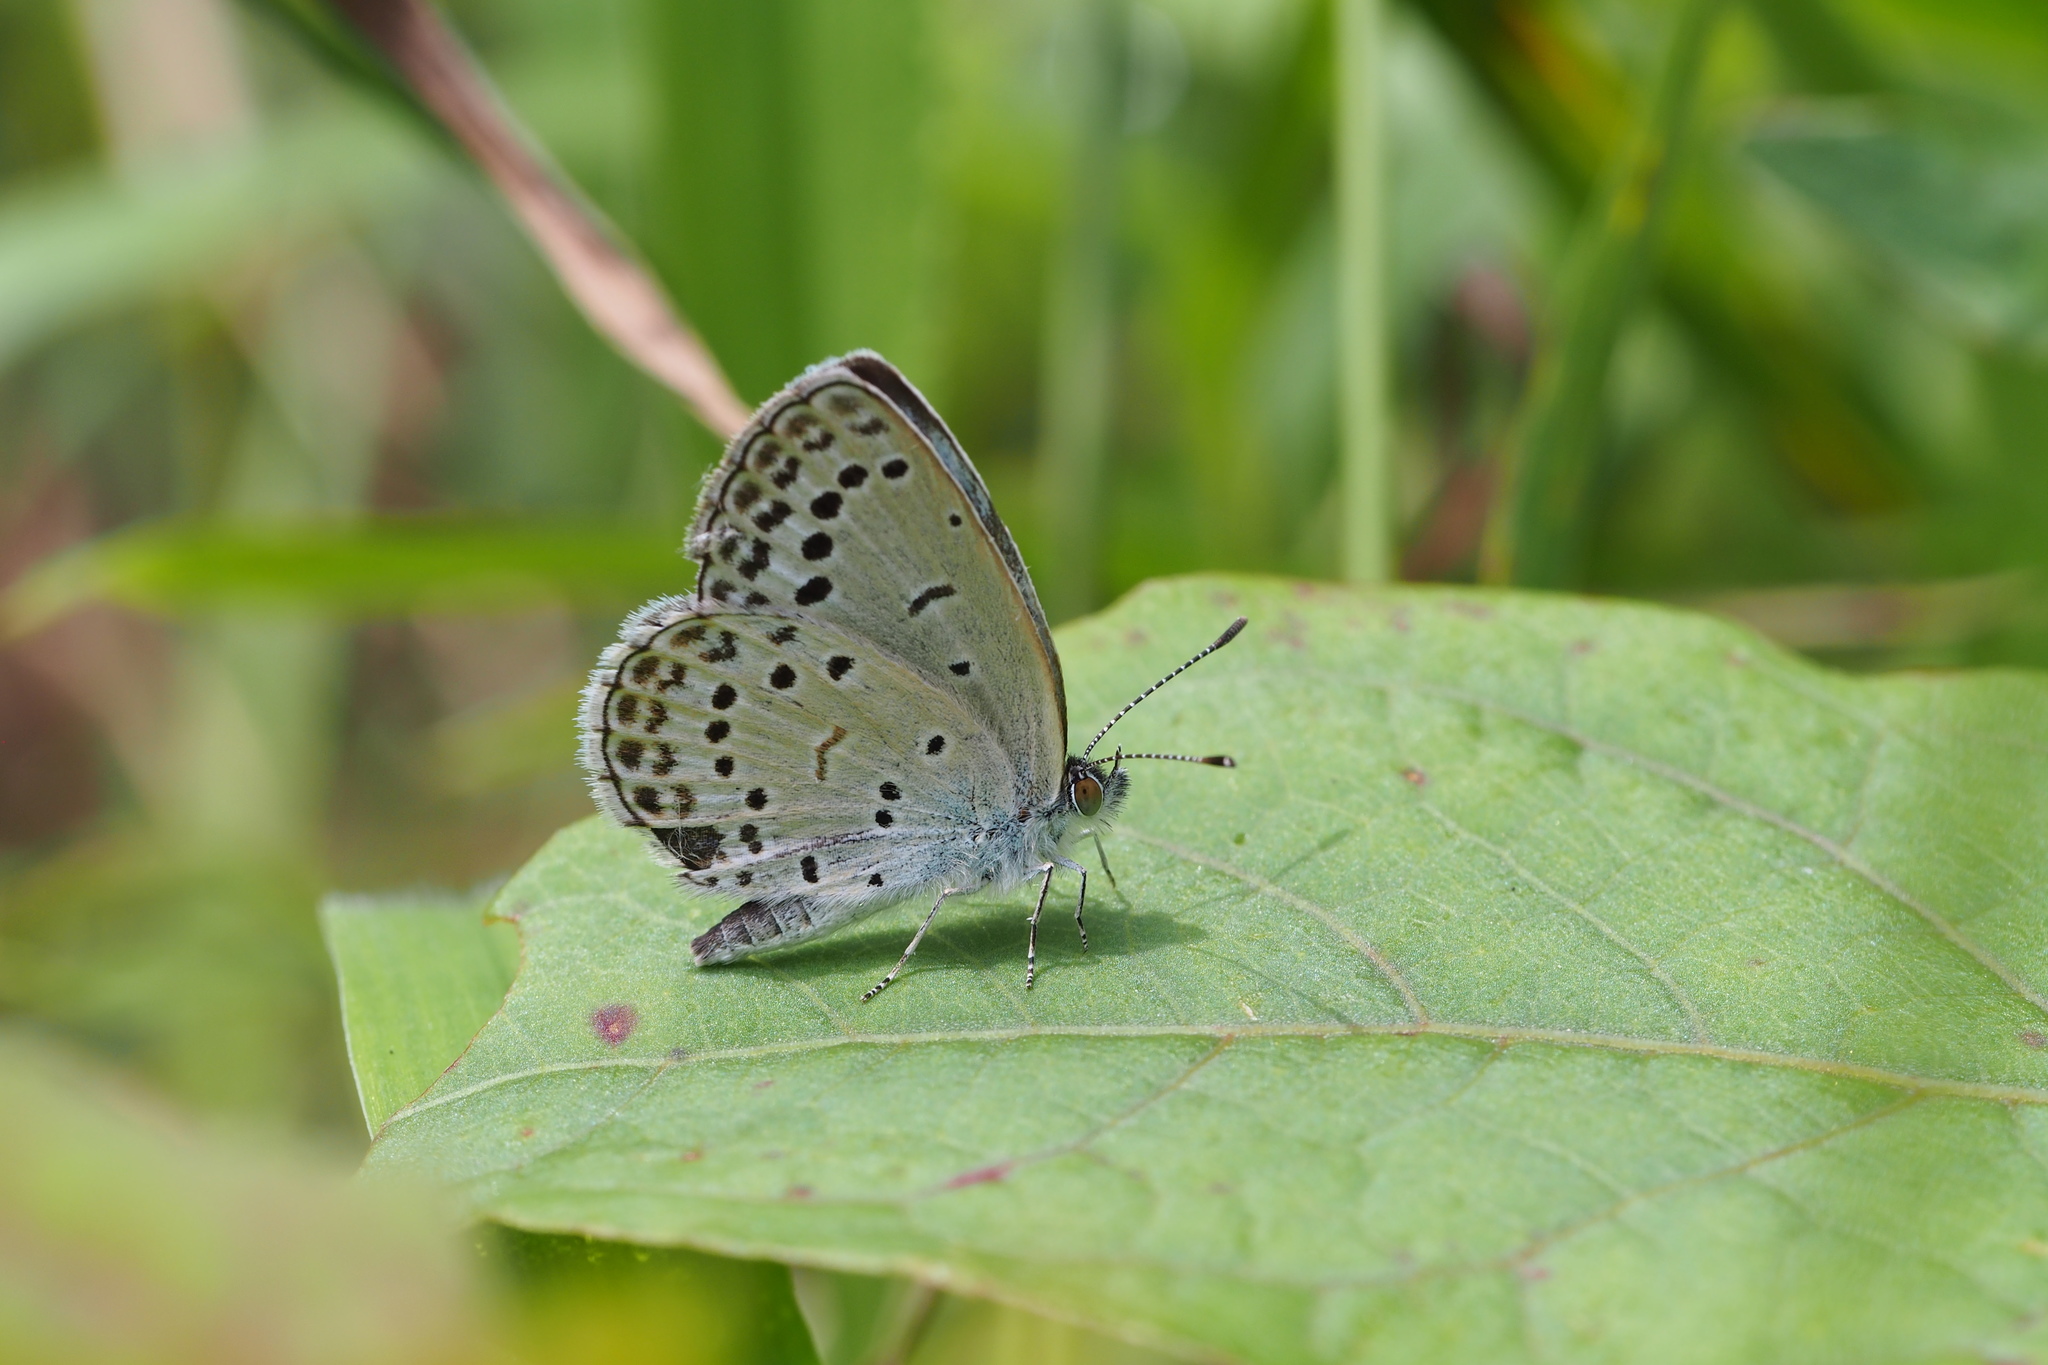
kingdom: Animalia
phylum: Arthropoda
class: Insecta
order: Lepidoptera
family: Lycaenidae
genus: Pseudozizeeria
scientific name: Pseudozizeeria maha
